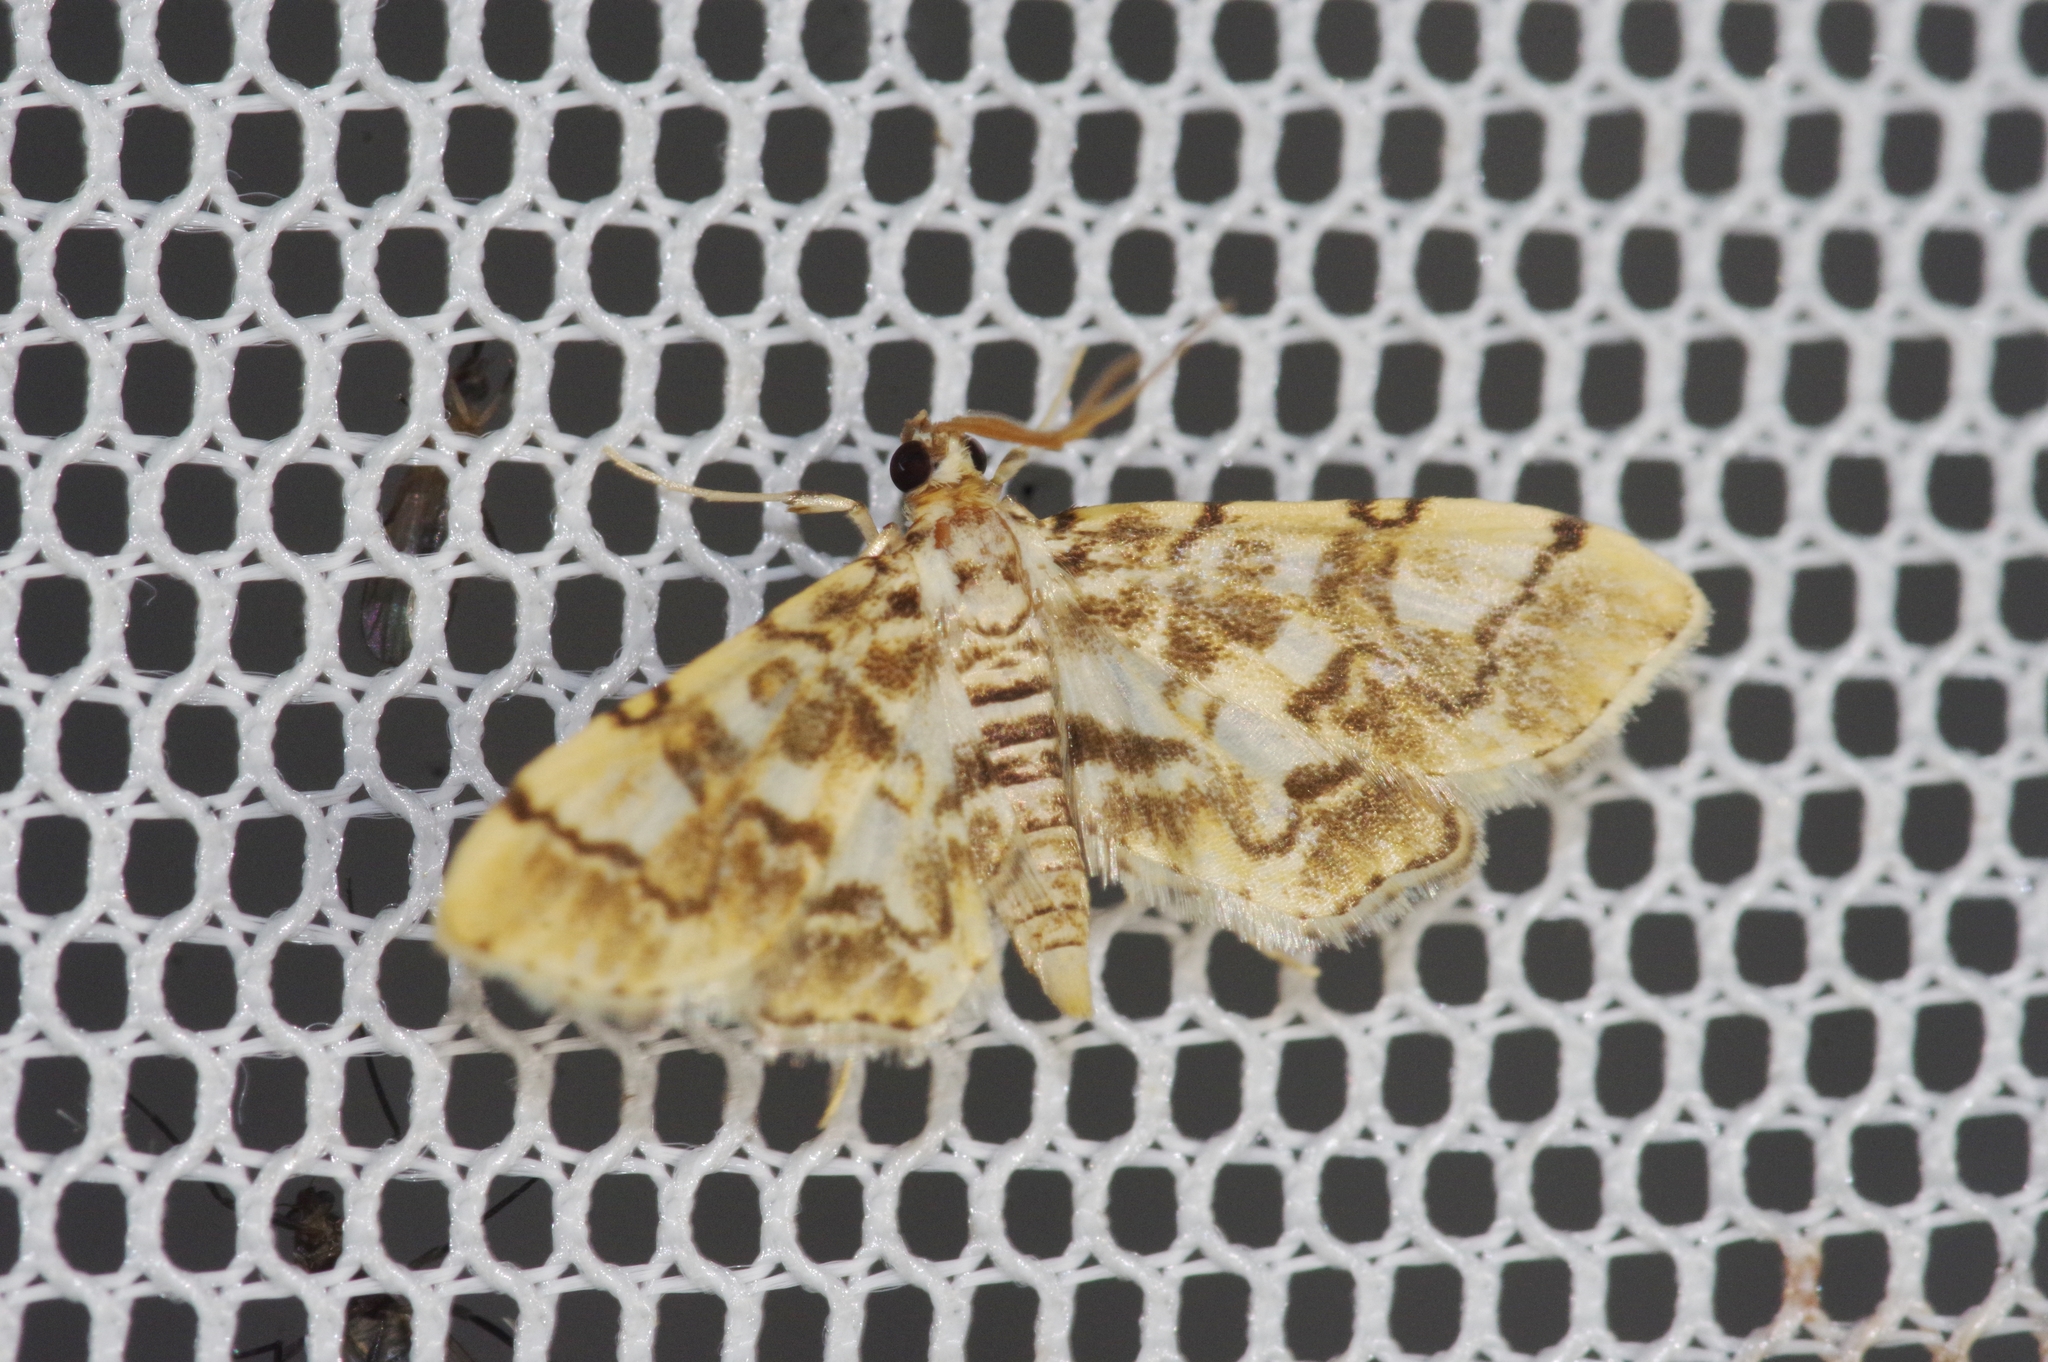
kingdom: Animalia
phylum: Arthropoda
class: Insecta
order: Lepidoptera
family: Crambidae
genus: Lamprosema
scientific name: Lamprosema commixta
